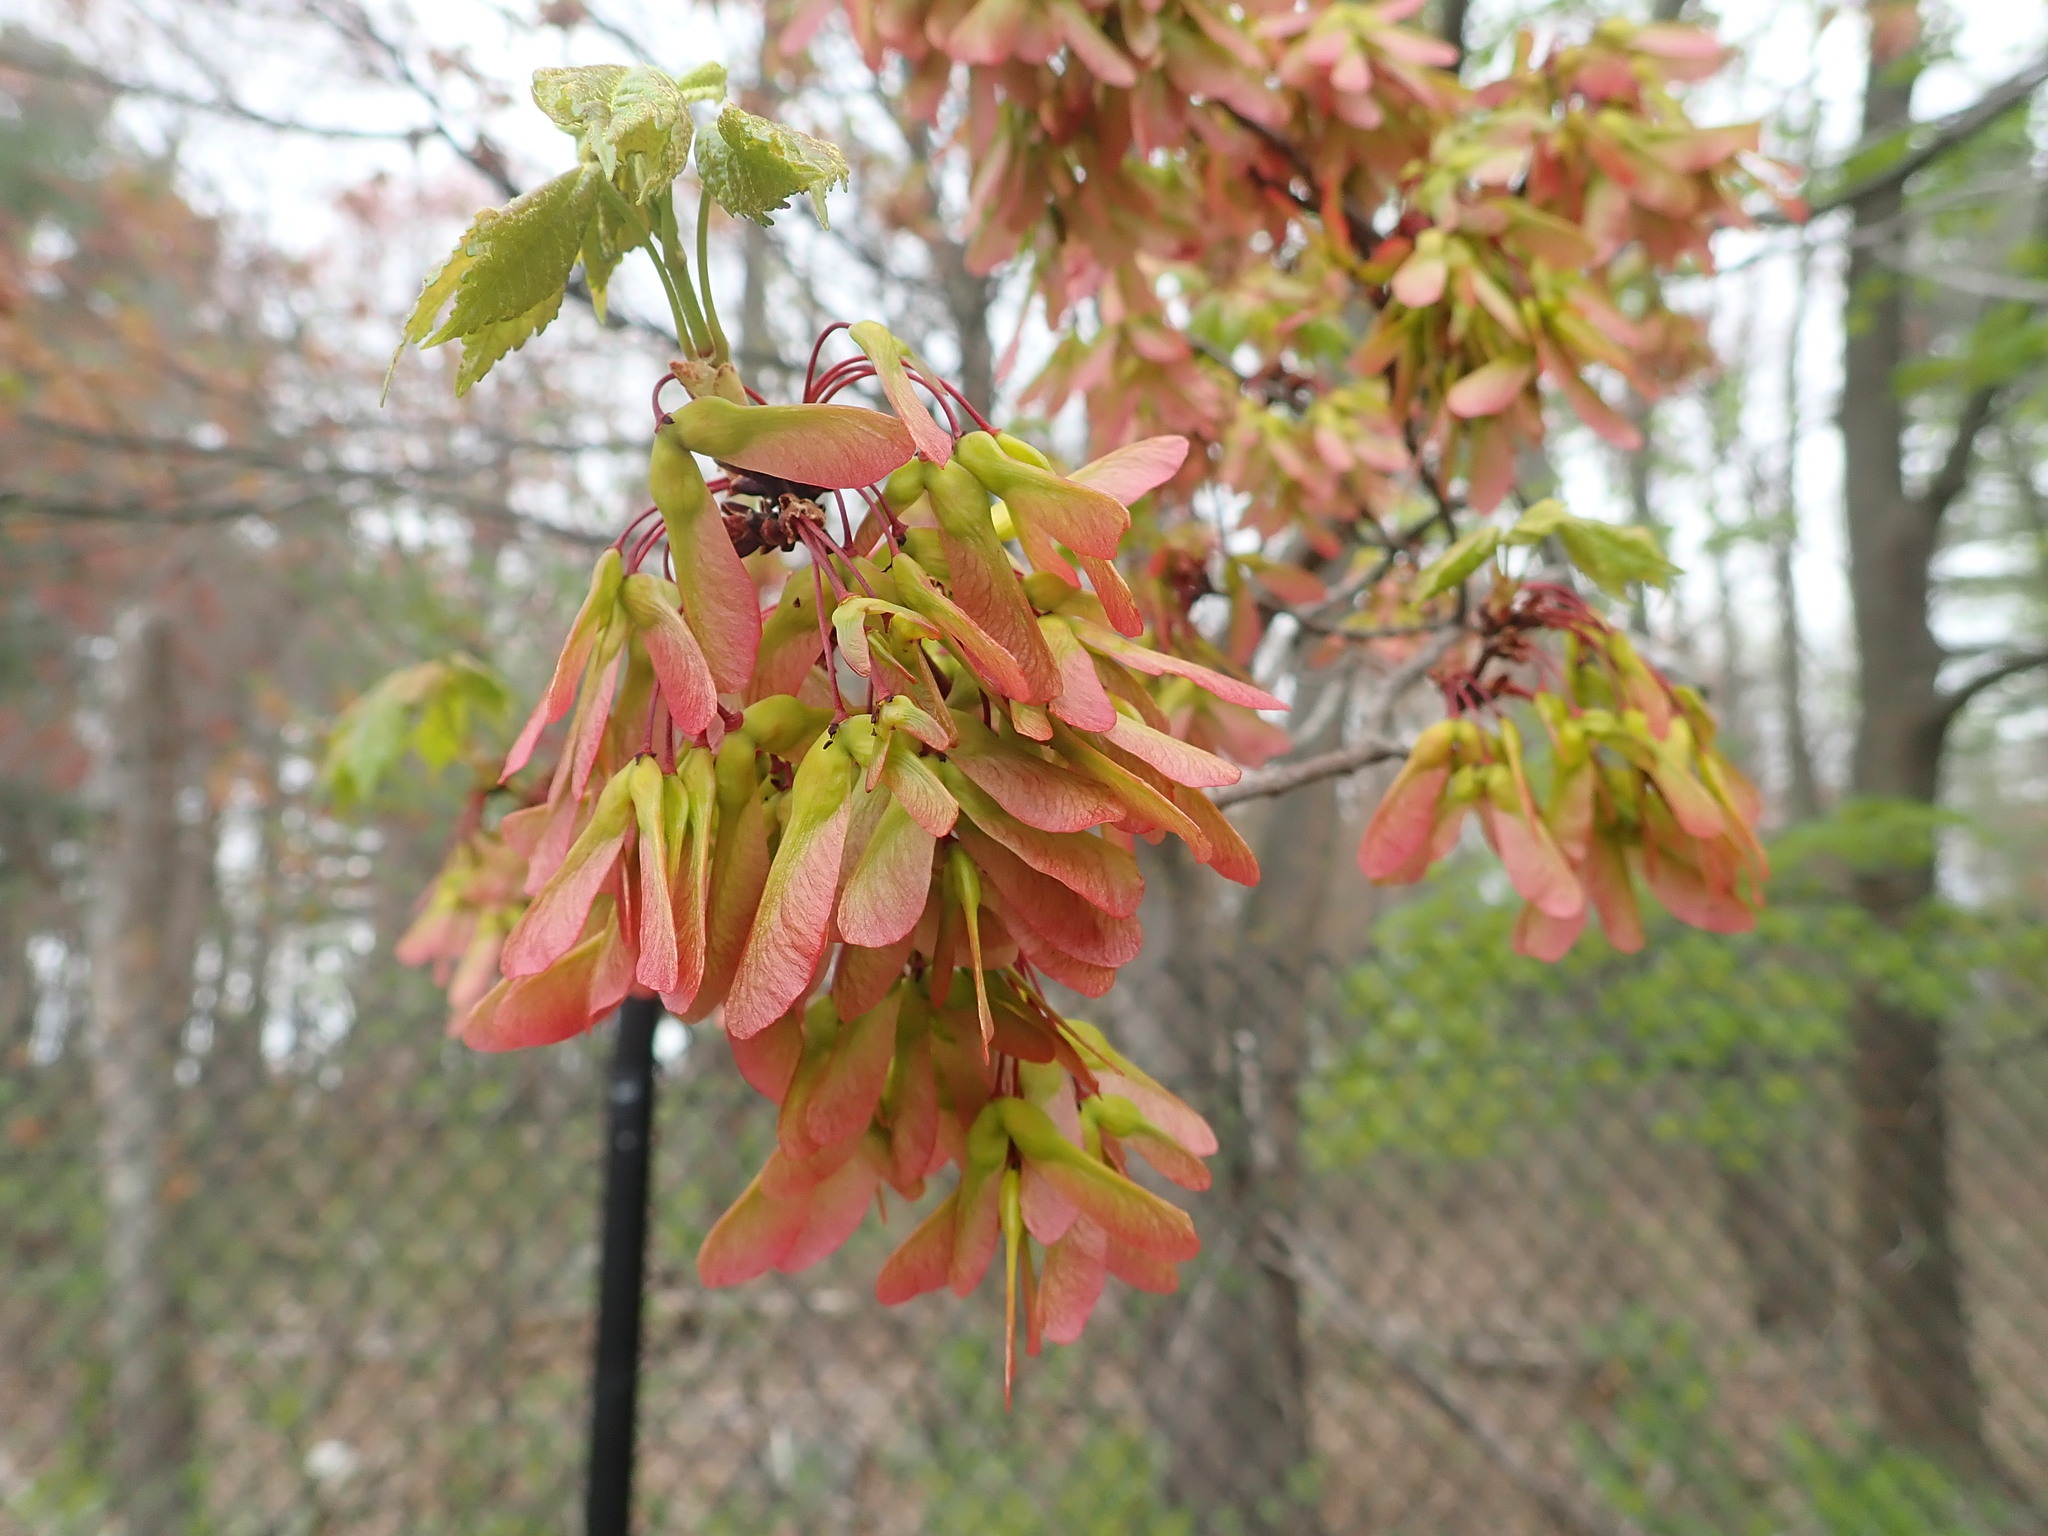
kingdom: Plantae
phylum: Tracheophyta
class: Magnoliopsida
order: Sapindales
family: Sapindaceae
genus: Acer
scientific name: Acer rubrum
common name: Red maple
